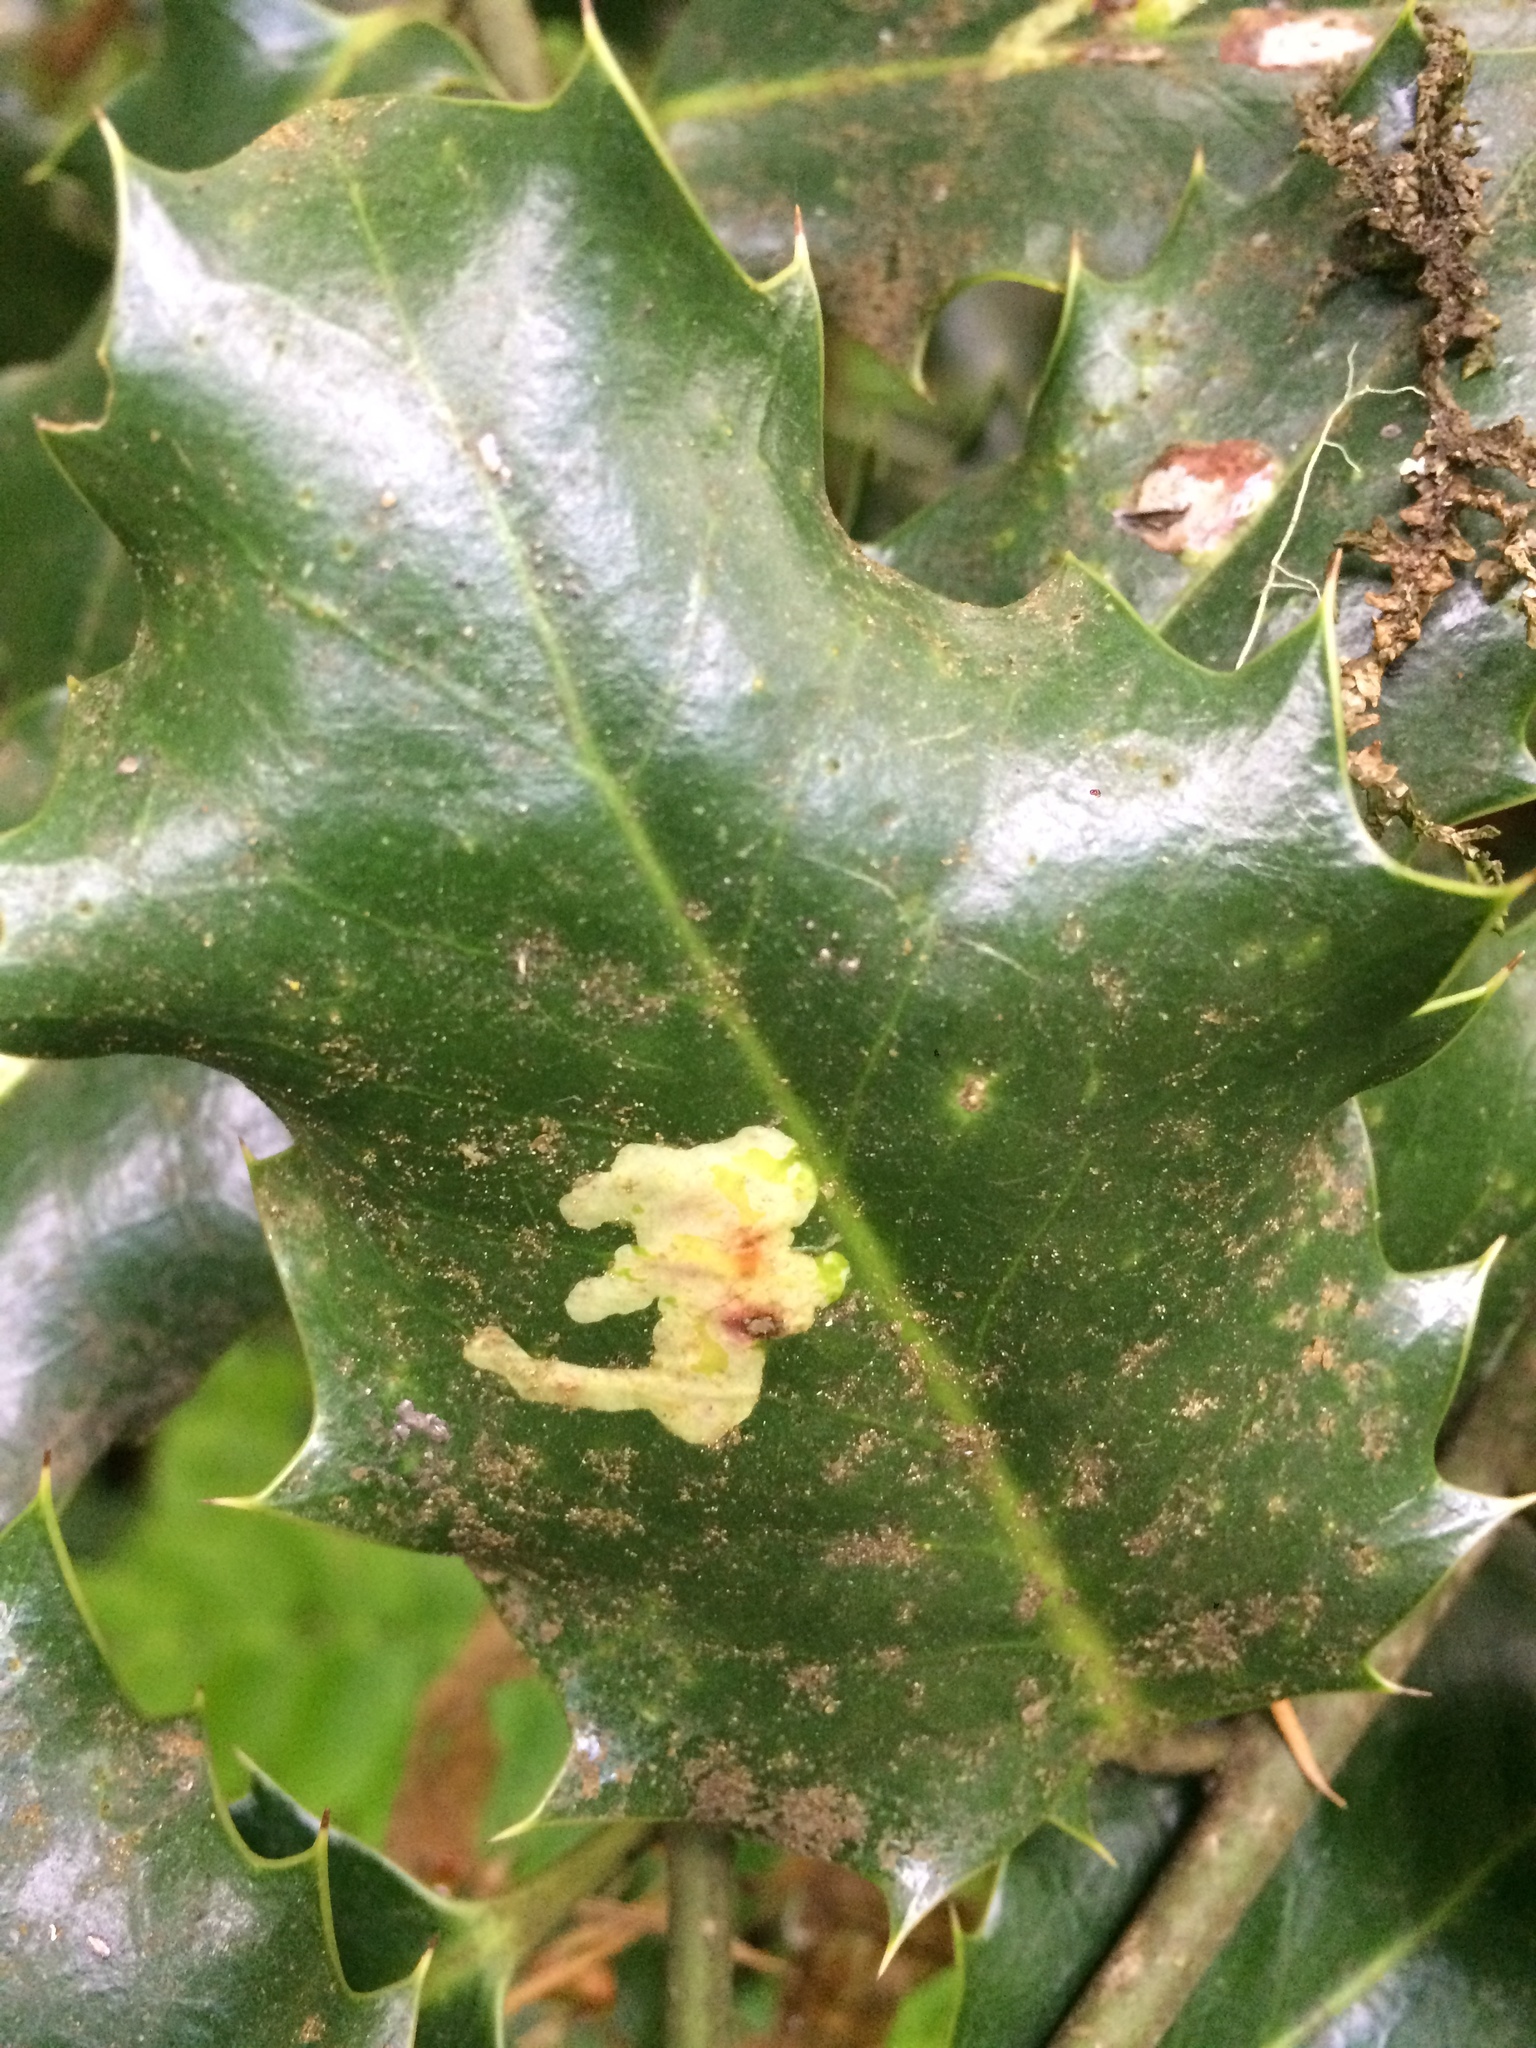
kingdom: Animalia
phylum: Arthropoda
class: Insecta
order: Diptera
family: Agromyzidae
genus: Phytomyza
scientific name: Phytomyza ilicis
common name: Holly leafminer
